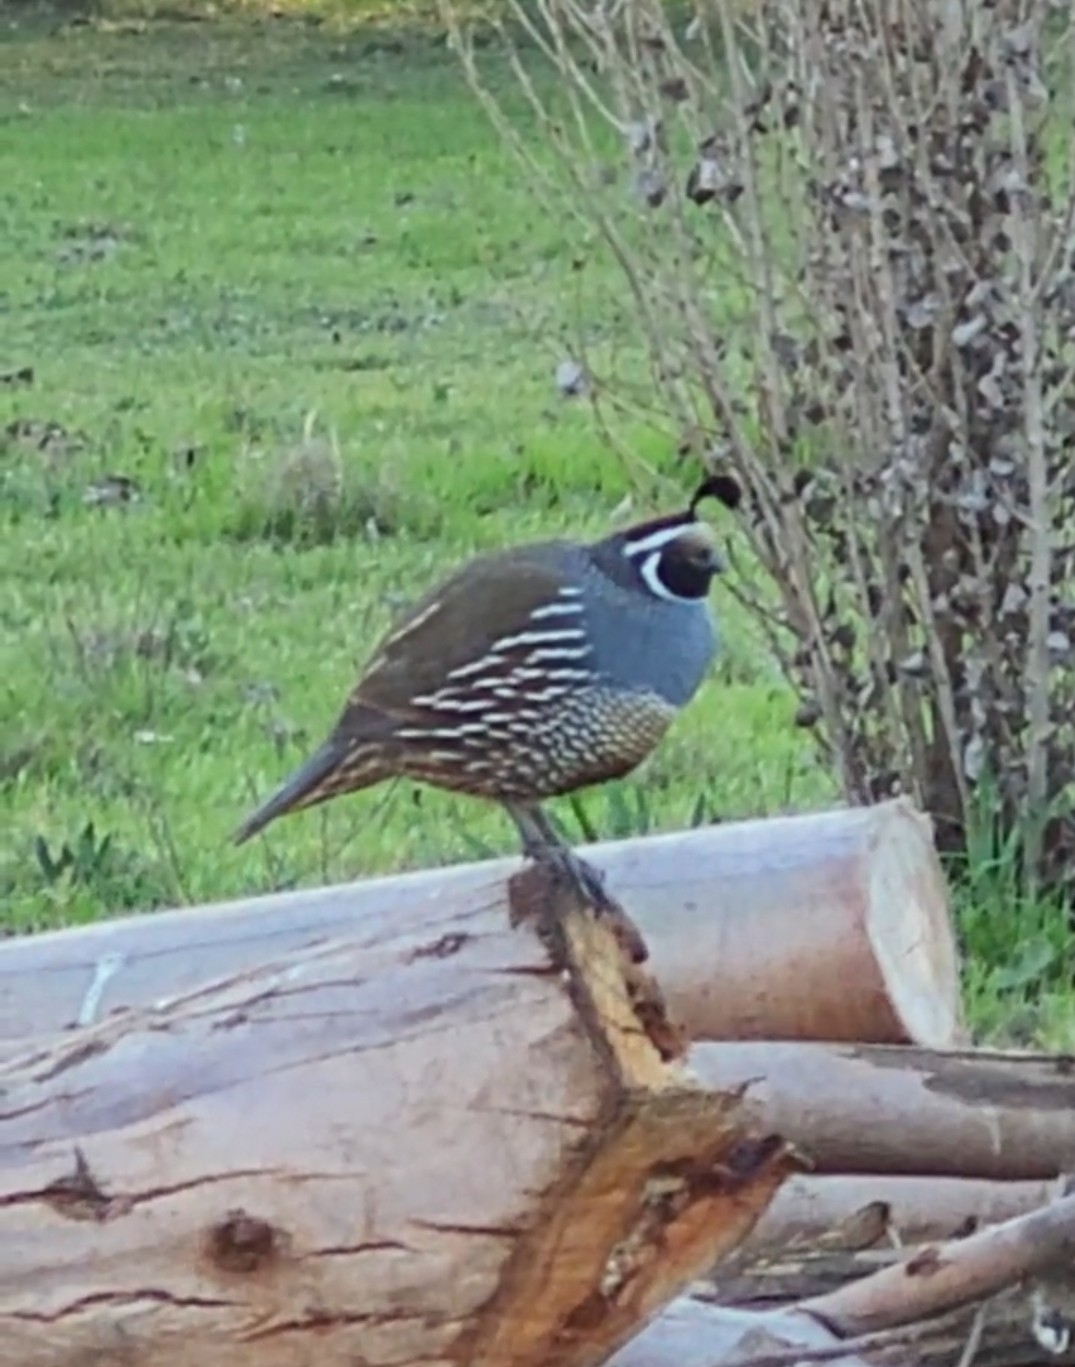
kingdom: Animalia
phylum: Chordata
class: Aves
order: Galliformes
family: Odontophoridae
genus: Callipepla
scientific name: Callipepla californica
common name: California quail
